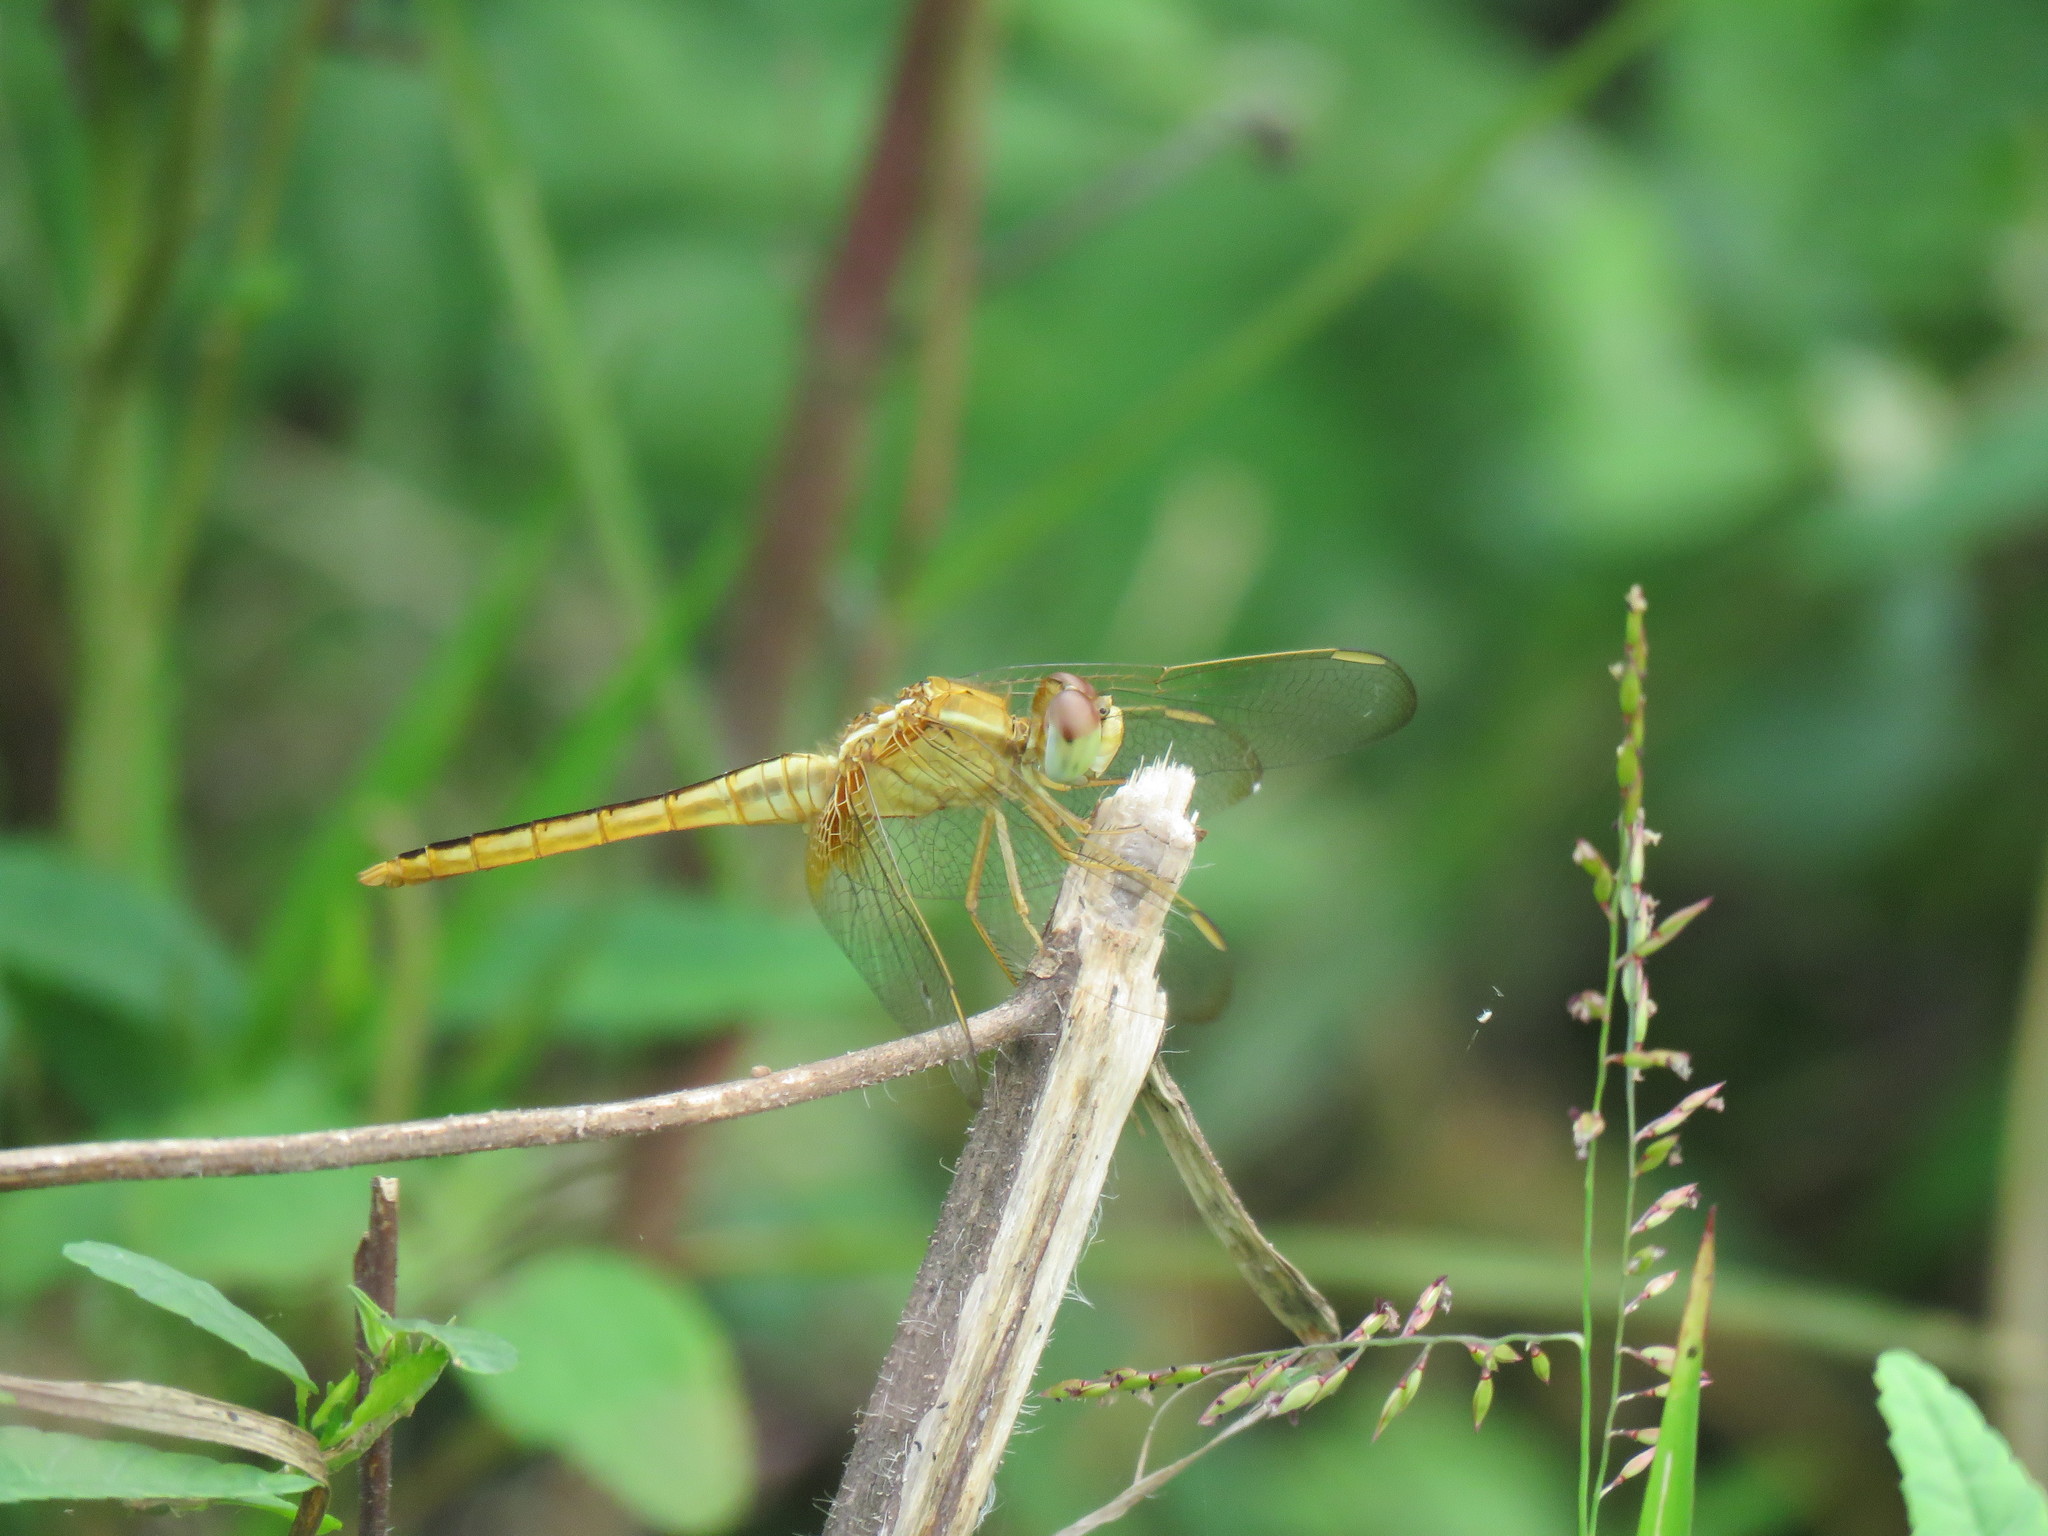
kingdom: Animalia
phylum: Arthropoda
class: Insecta
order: Odonata
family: Libellulidae
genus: Crocothemis
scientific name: Crocothemis servilia
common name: Scarlet skimmer
